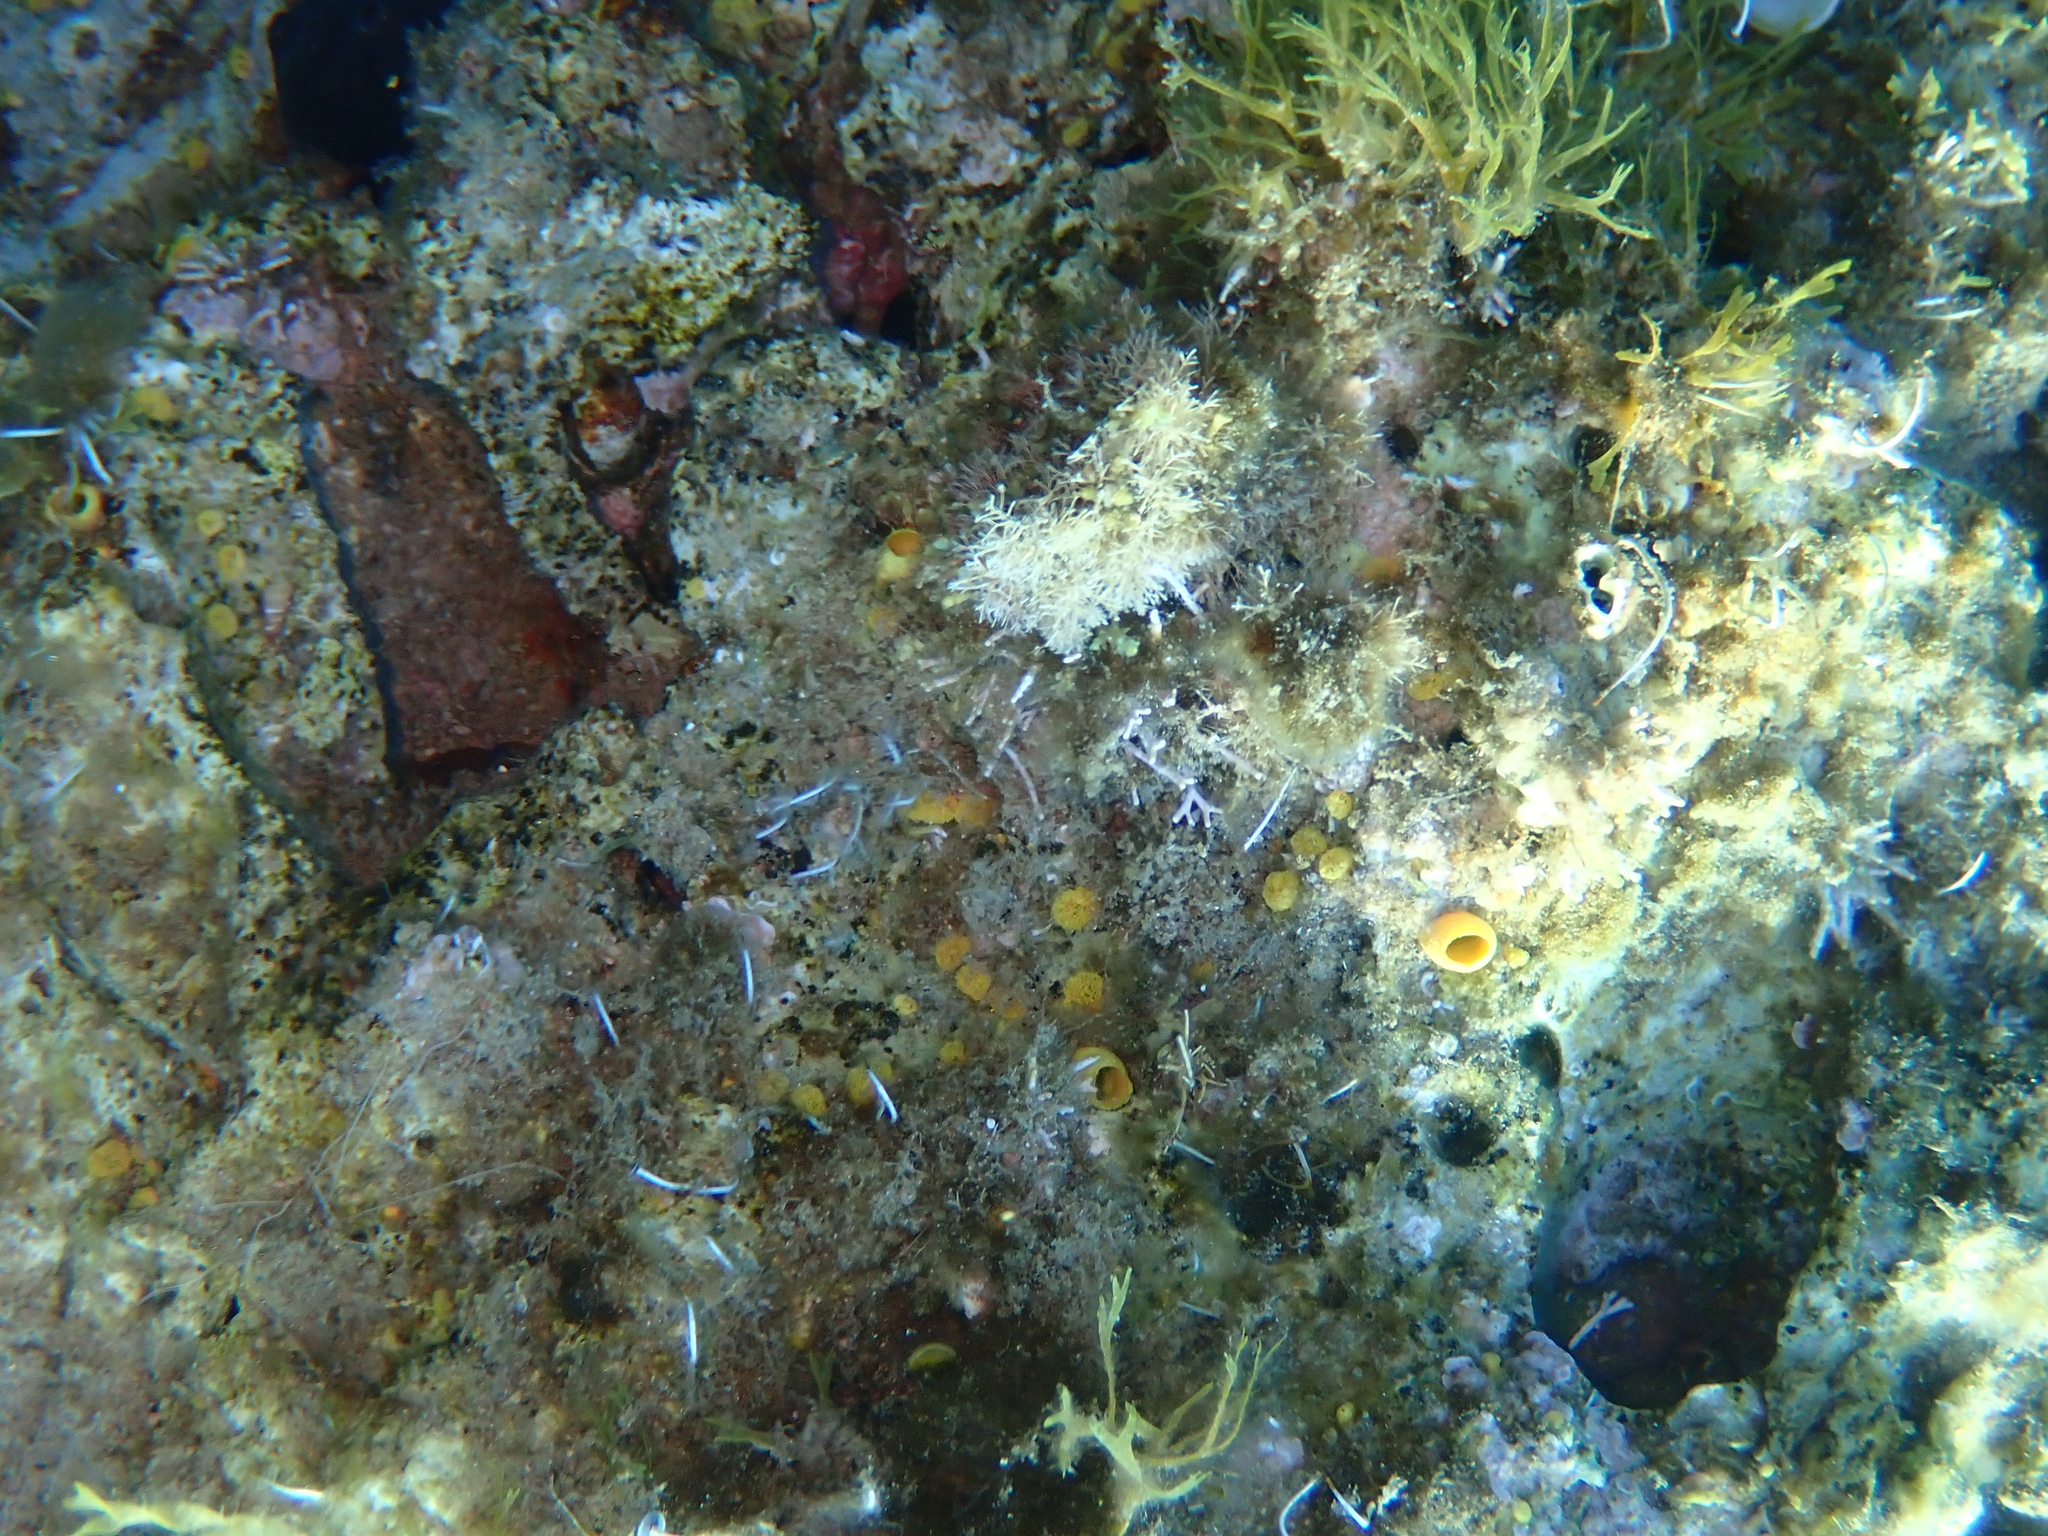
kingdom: Animalia
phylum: Porifera
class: Demospongiae
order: Clionaida
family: Clionaidae
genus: Cliona
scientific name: Cliona celata
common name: Boring sponge
